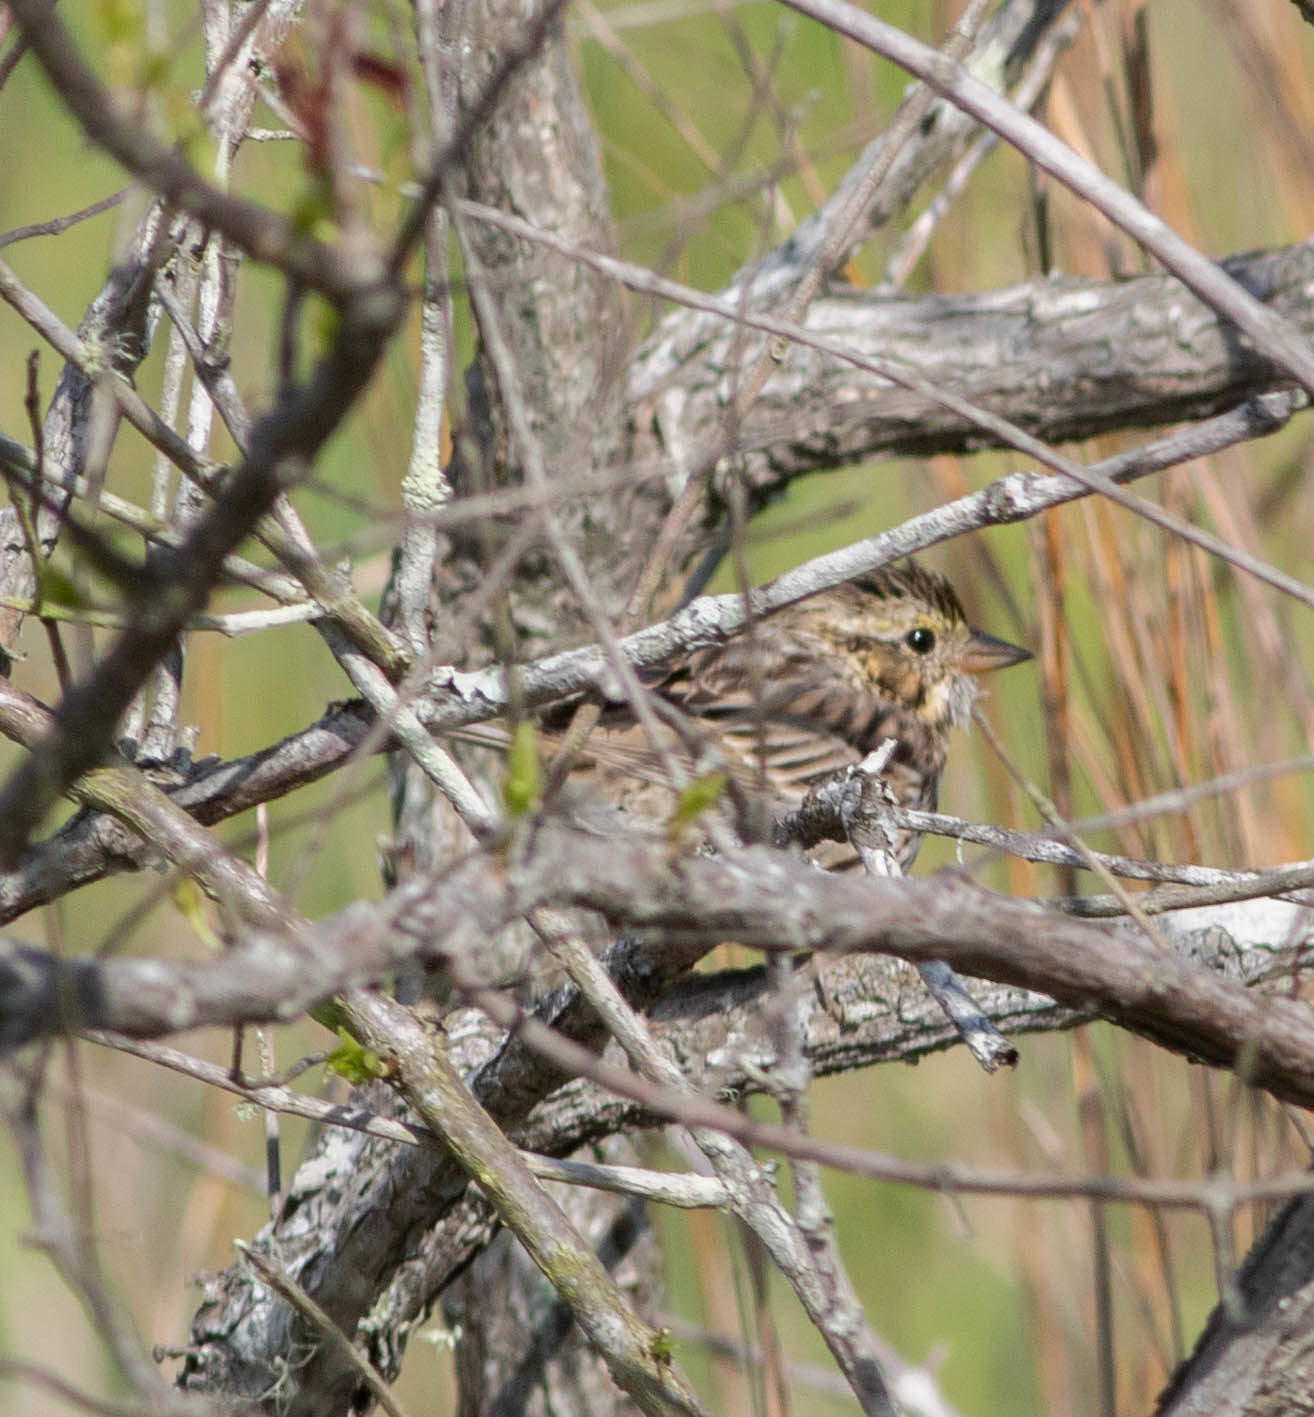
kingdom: Animalia
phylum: Chordata
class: Aves
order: Passeriformes
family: Passerellidae
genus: Passerculus
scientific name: Passerculus sandwichensis
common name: Savannah sparrow
